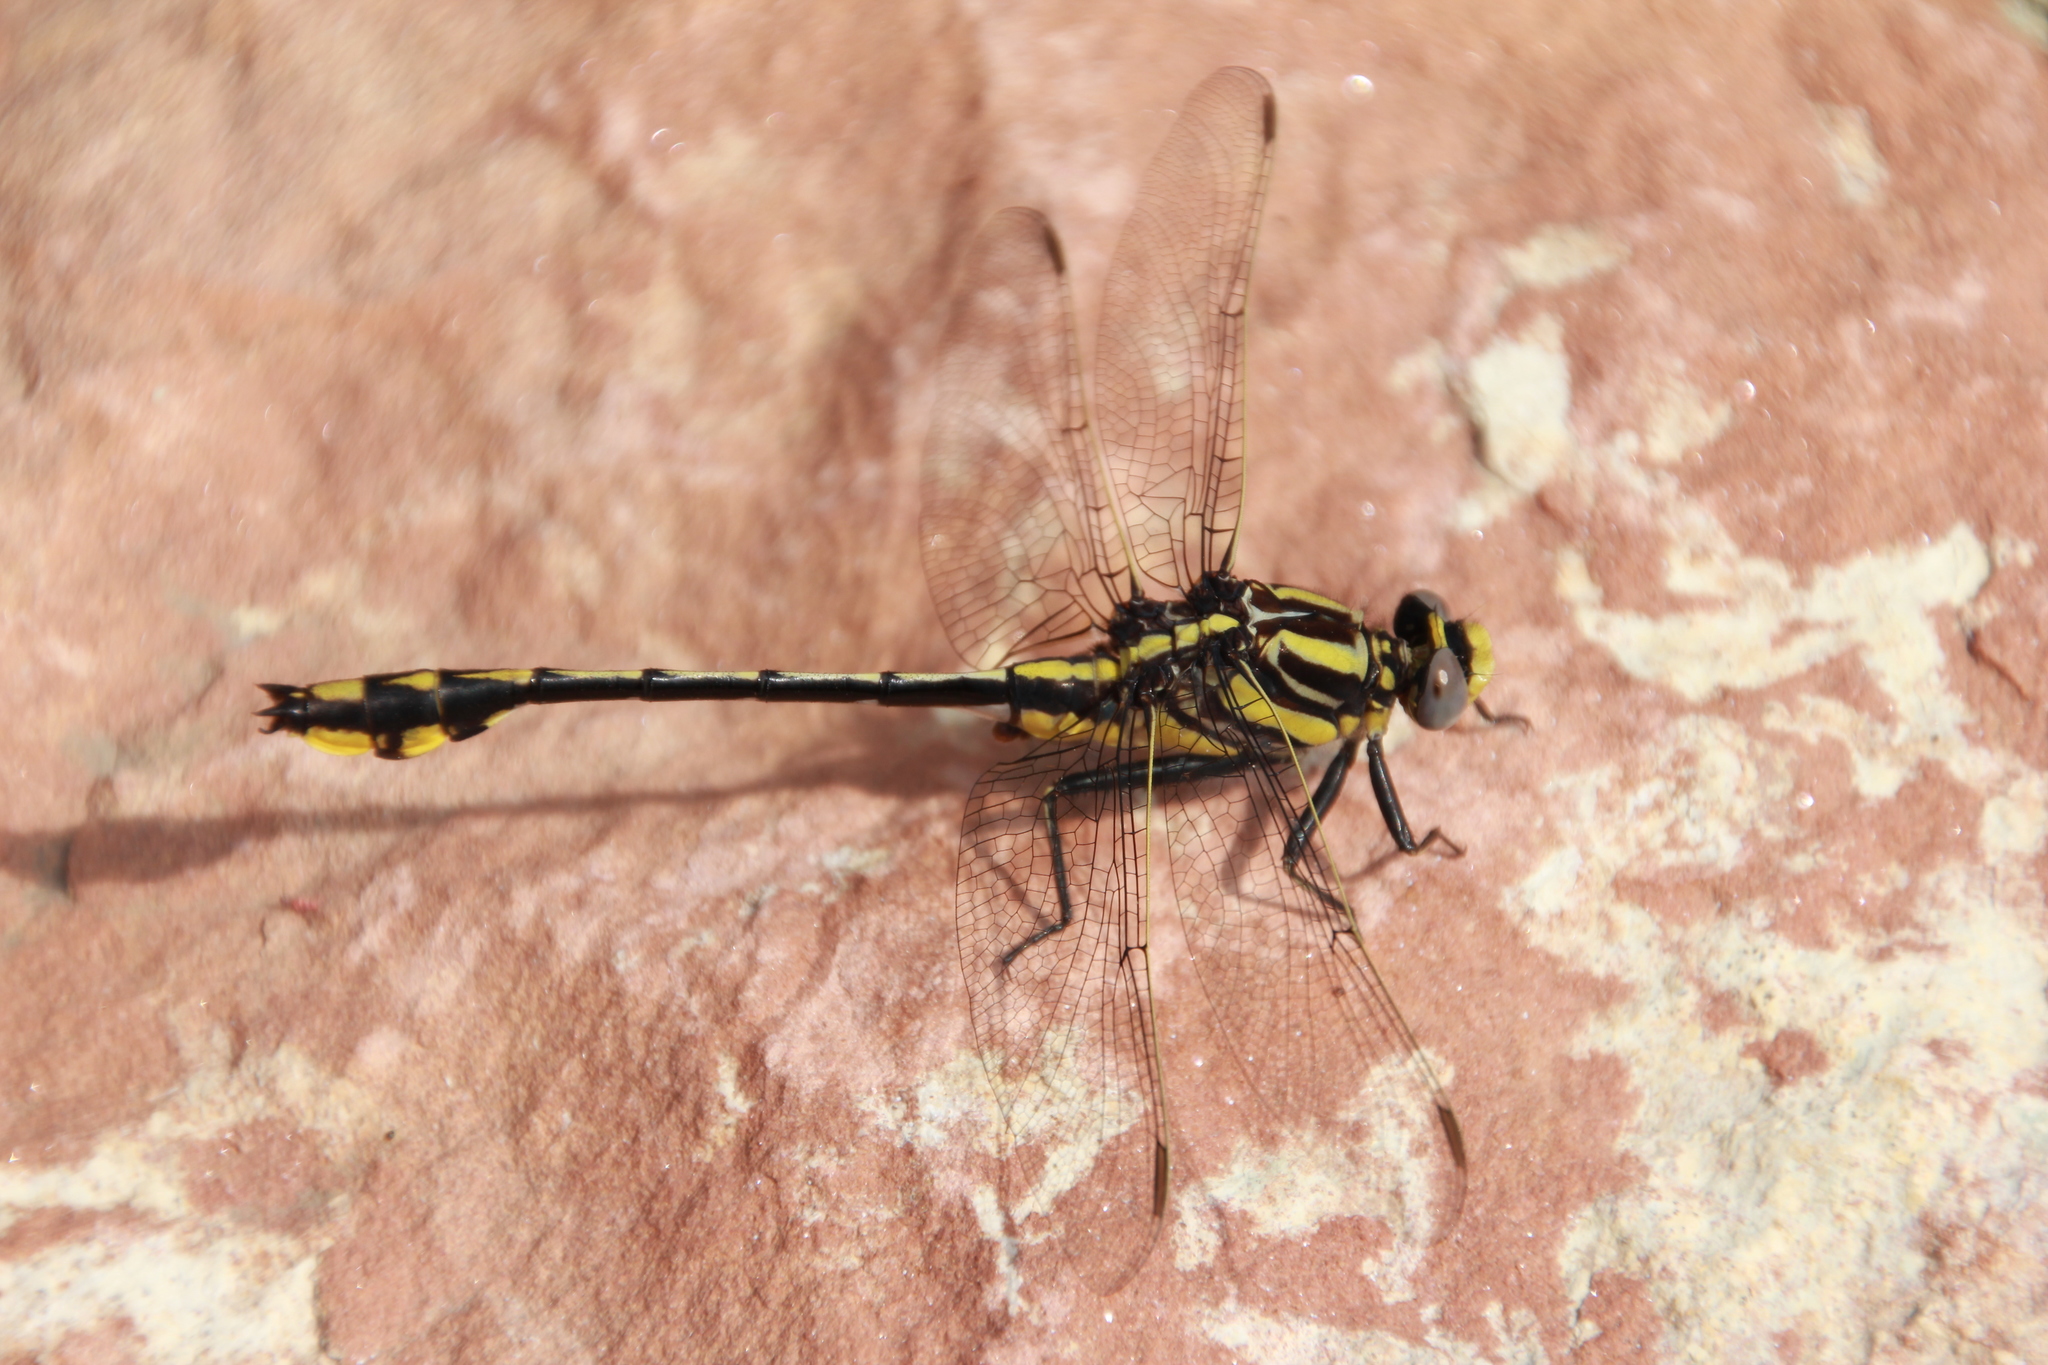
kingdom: Animalia
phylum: Arthropoda
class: Insecta
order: Odonata
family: Gomphidae
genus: Gomphurus
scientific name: Gomphurus externus
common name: Plains clubtail
